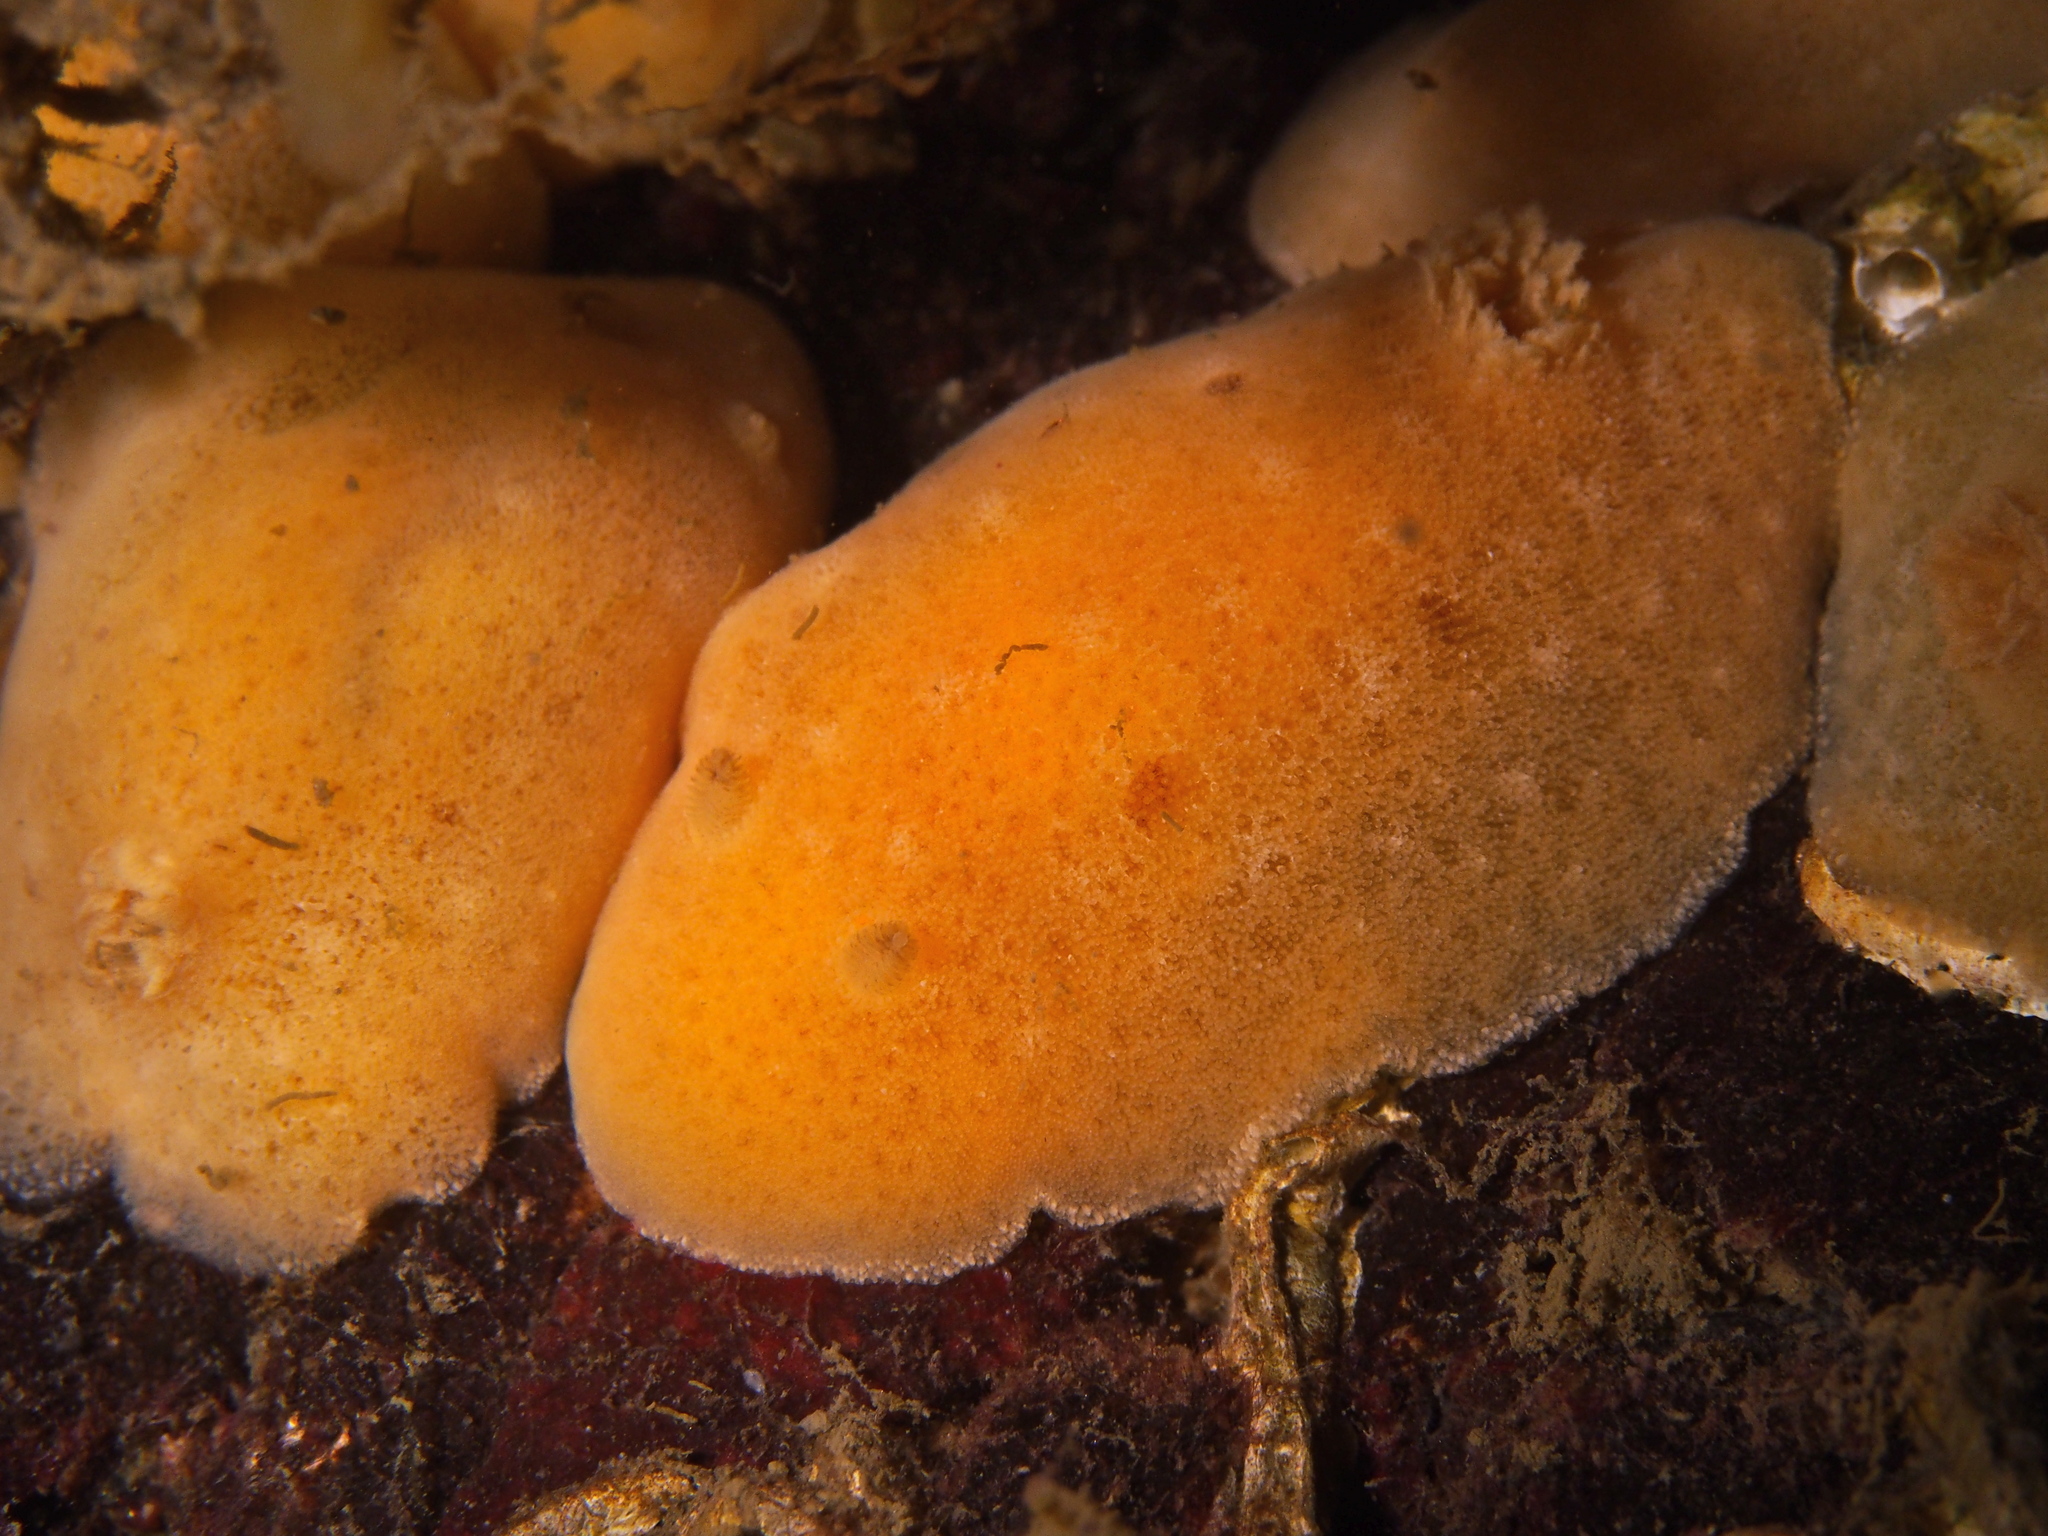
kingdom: Animalia
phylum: Mollusca
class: Gastropoda
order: Nudibranchia
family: Discodorididae
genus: Jorunna
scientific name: Jorunna tomentosa
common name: Grey sea slug
